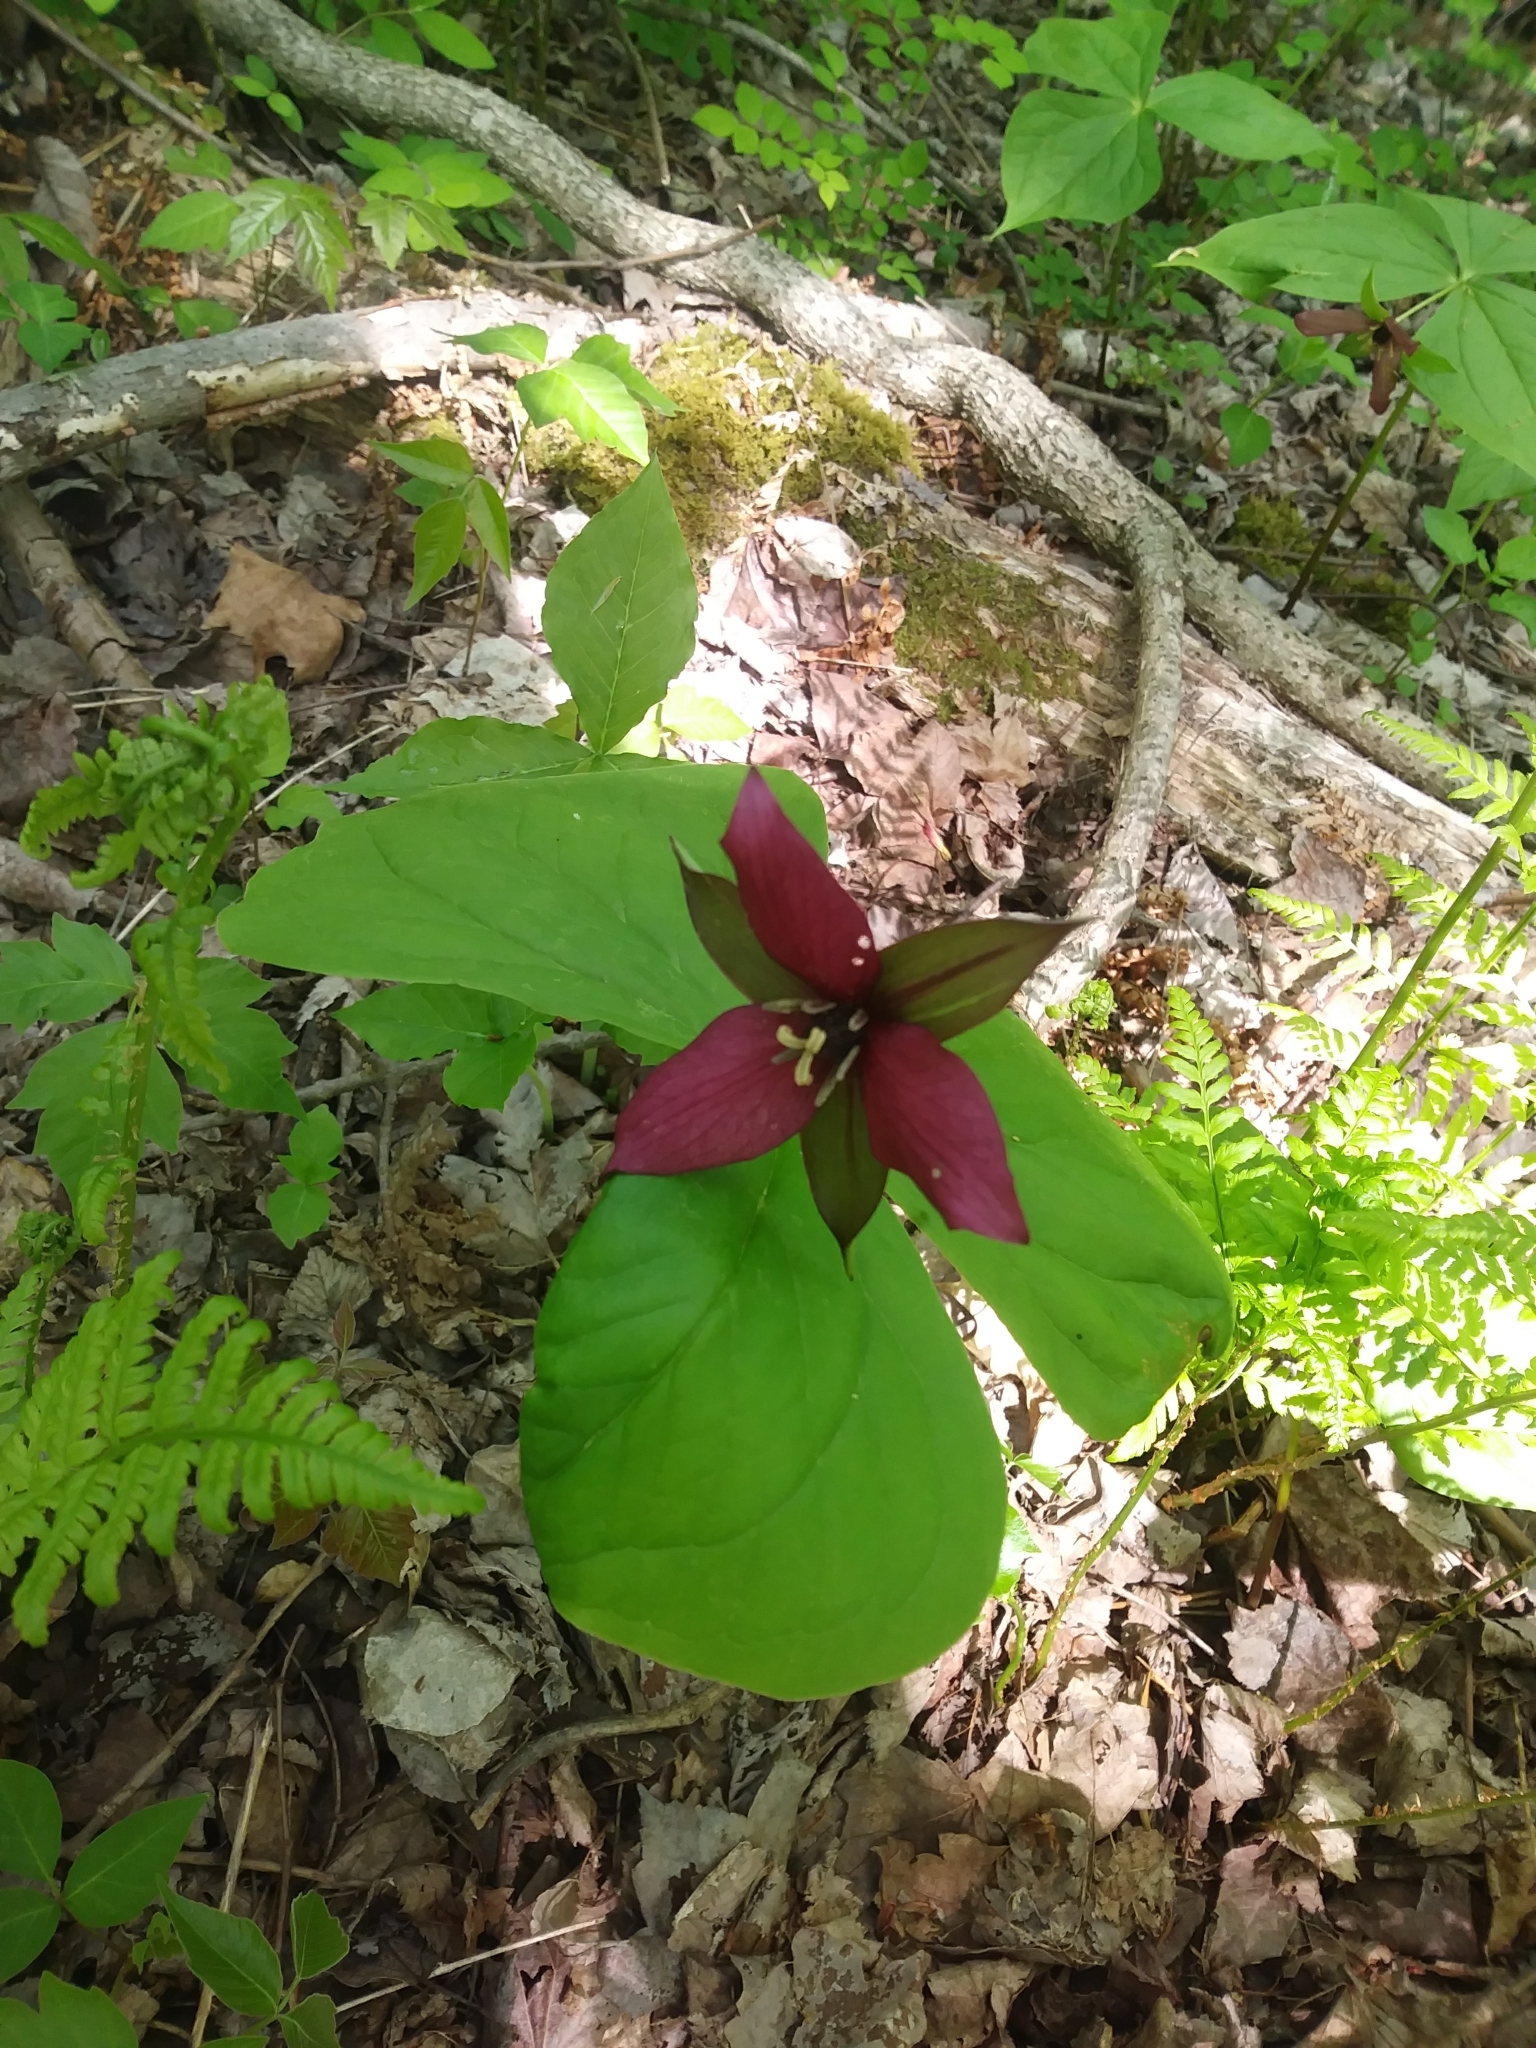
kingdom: Plantae
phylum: Tracheophyta
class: Liliopsida
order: Liliales
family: Melanthiaceae
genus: Trillium
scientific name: Trillium erectum
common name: Purple trillium
